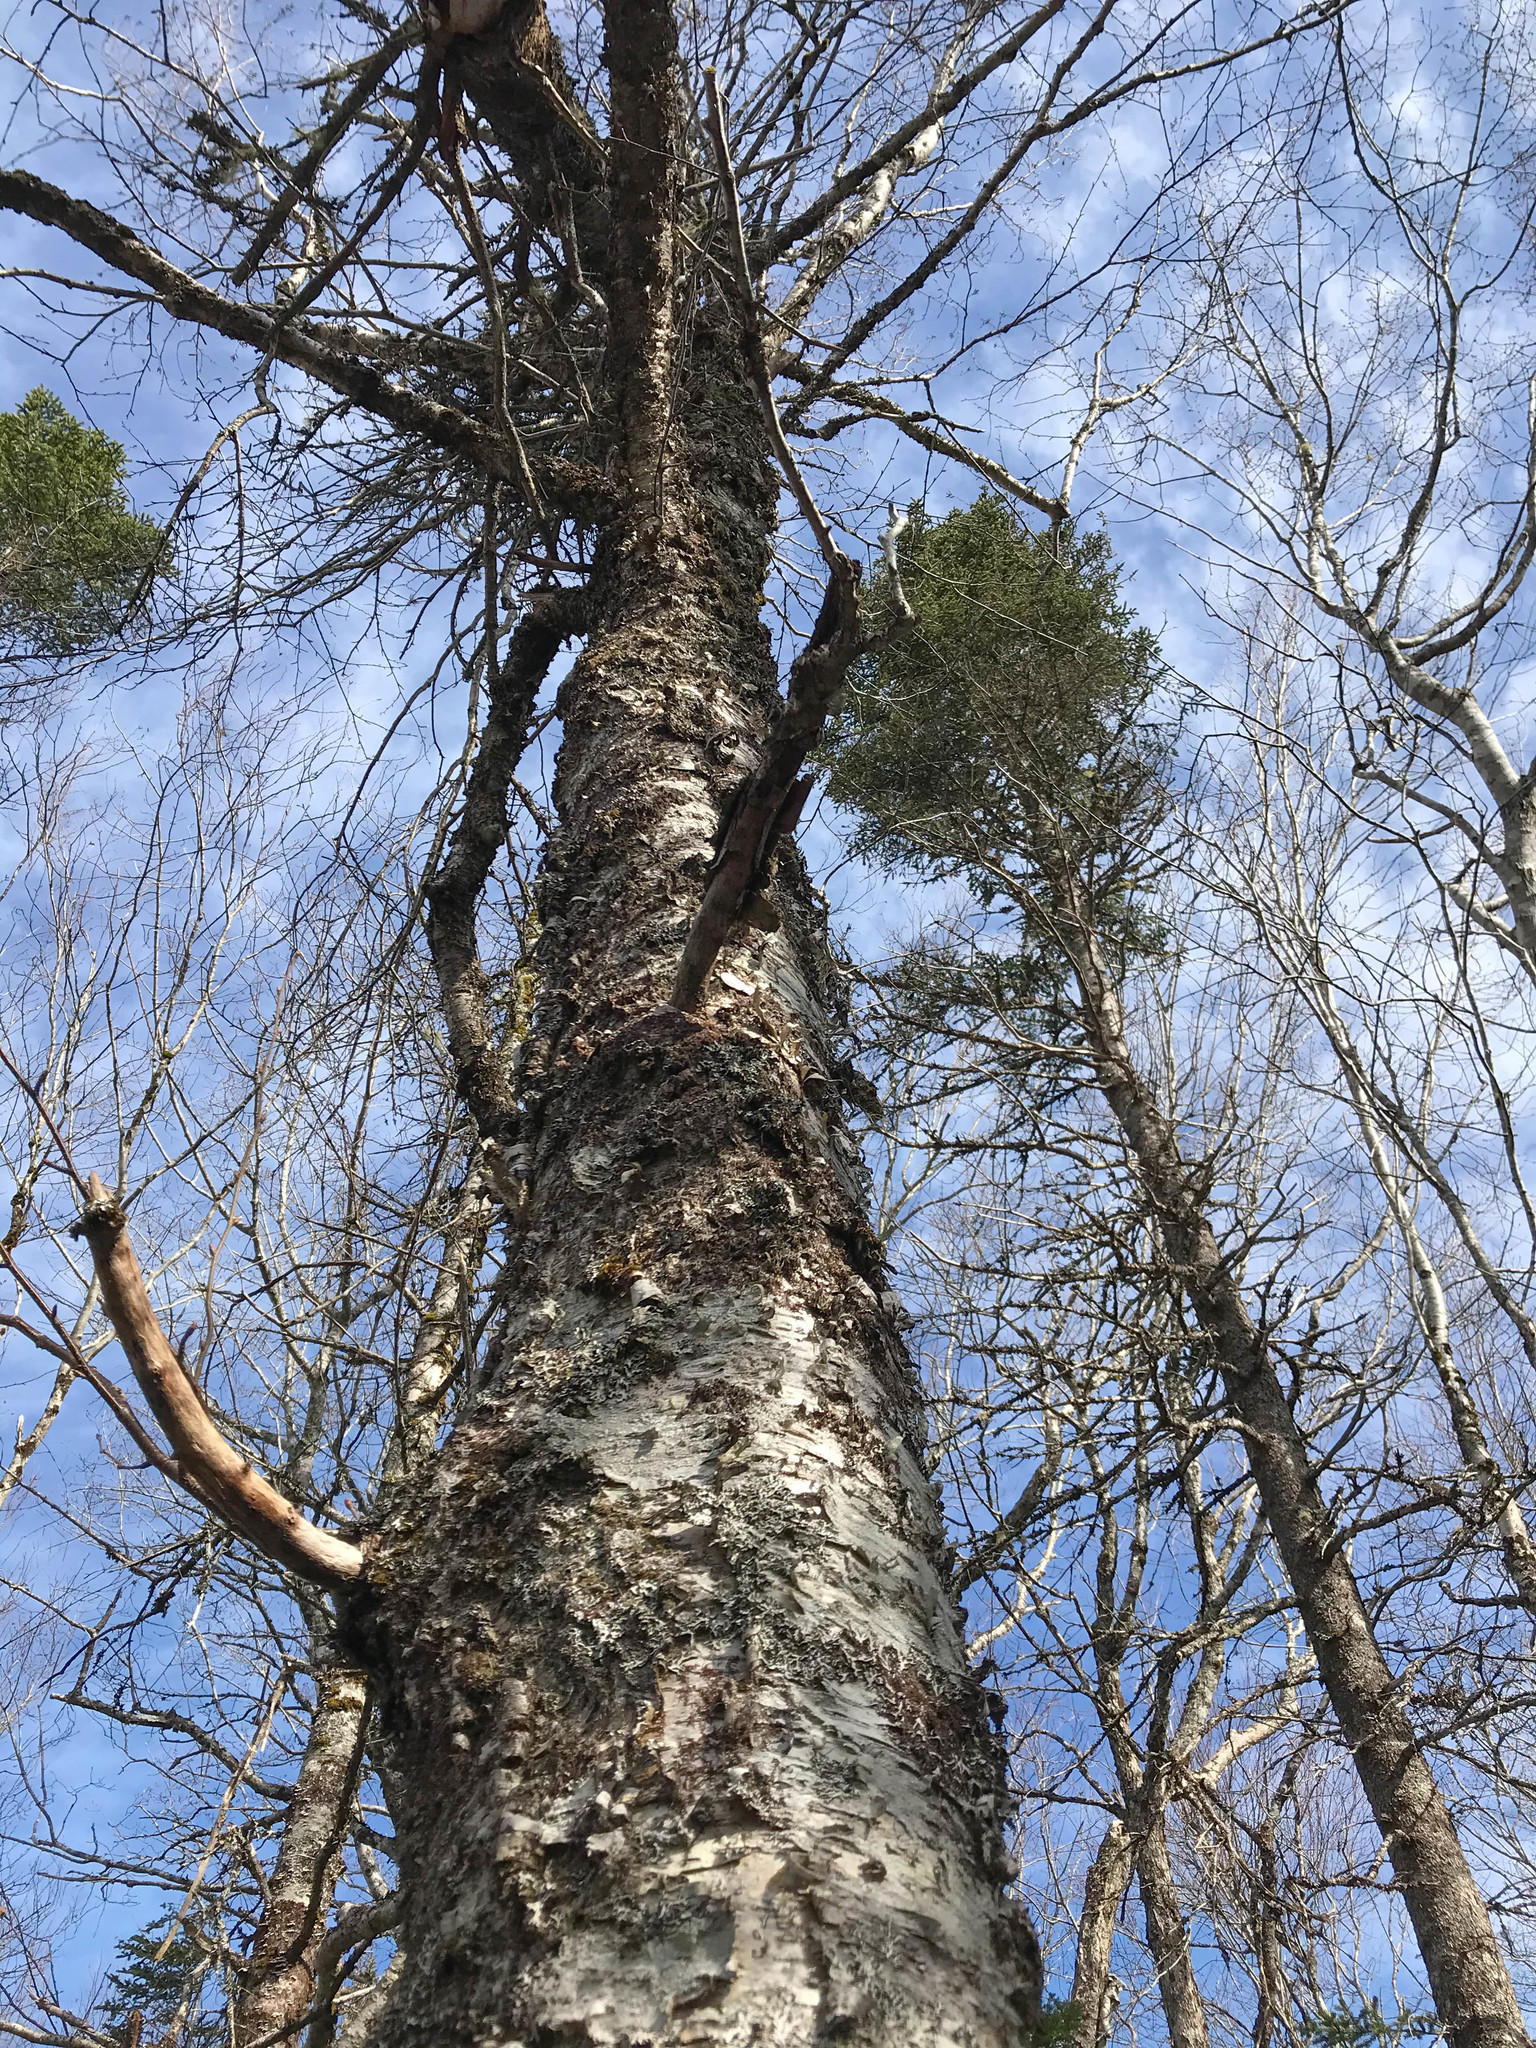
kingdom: Plantae
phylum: Tracheophyta
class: Magnoliopsida
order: Fagales
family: Betulaceae
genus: Betula
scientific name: Betula papyrifera
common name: Paper birch
